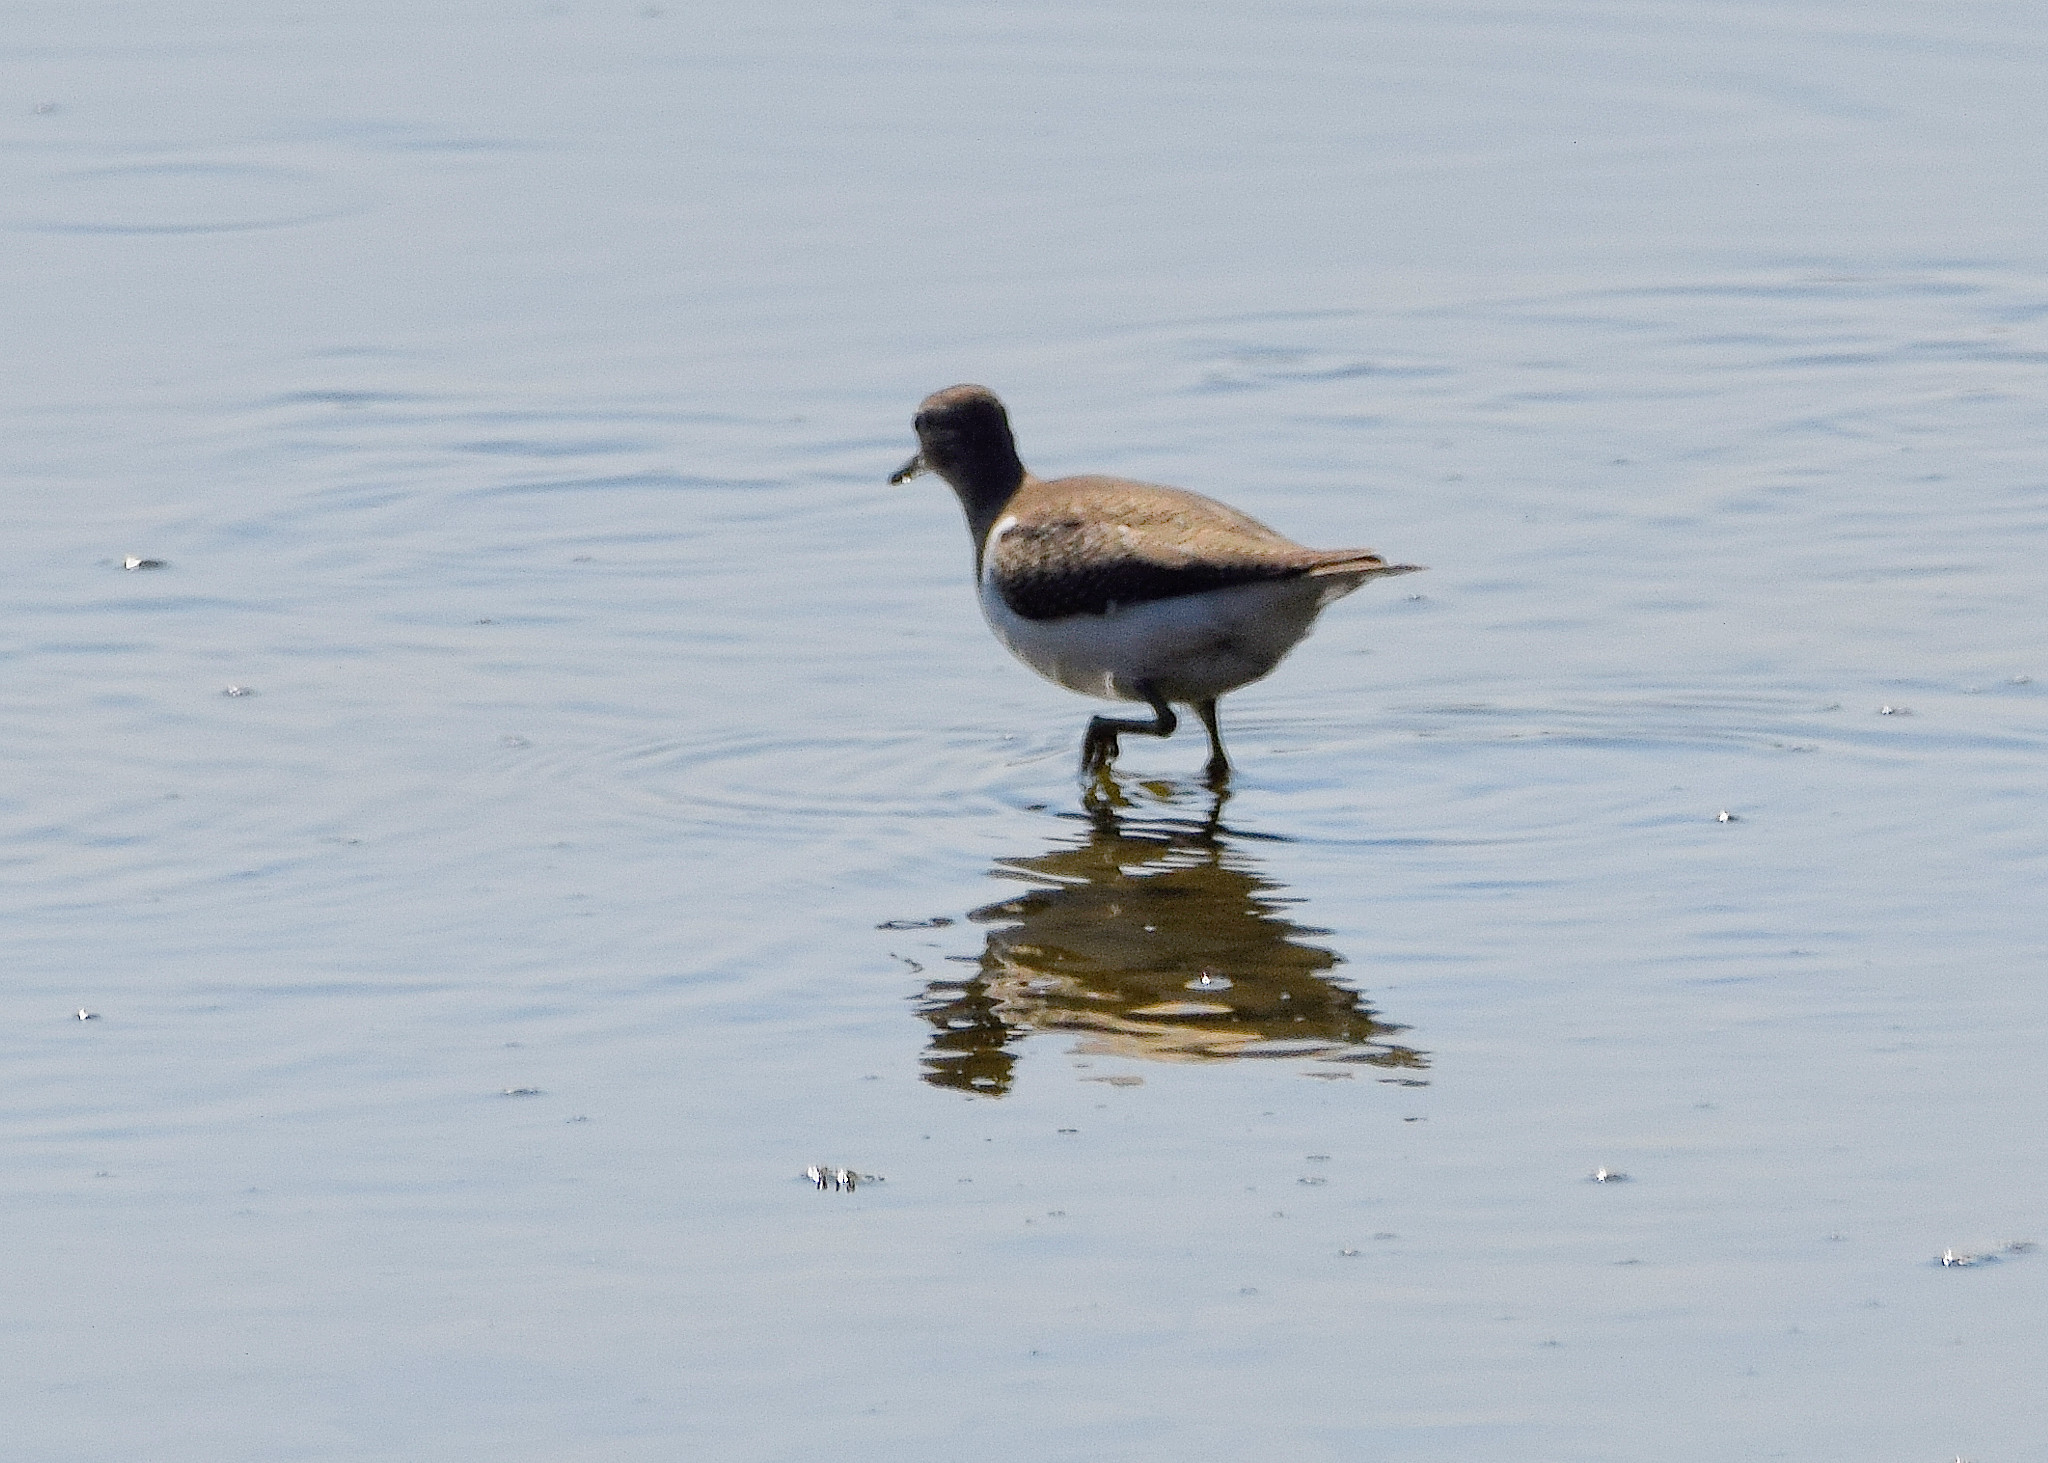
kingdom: Animalia
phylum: Chordata
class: Aves
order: Charadriiformes
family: Scolopacidae
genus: Actitis
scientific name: Actitis hypoleucos
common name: Common sandpiper
